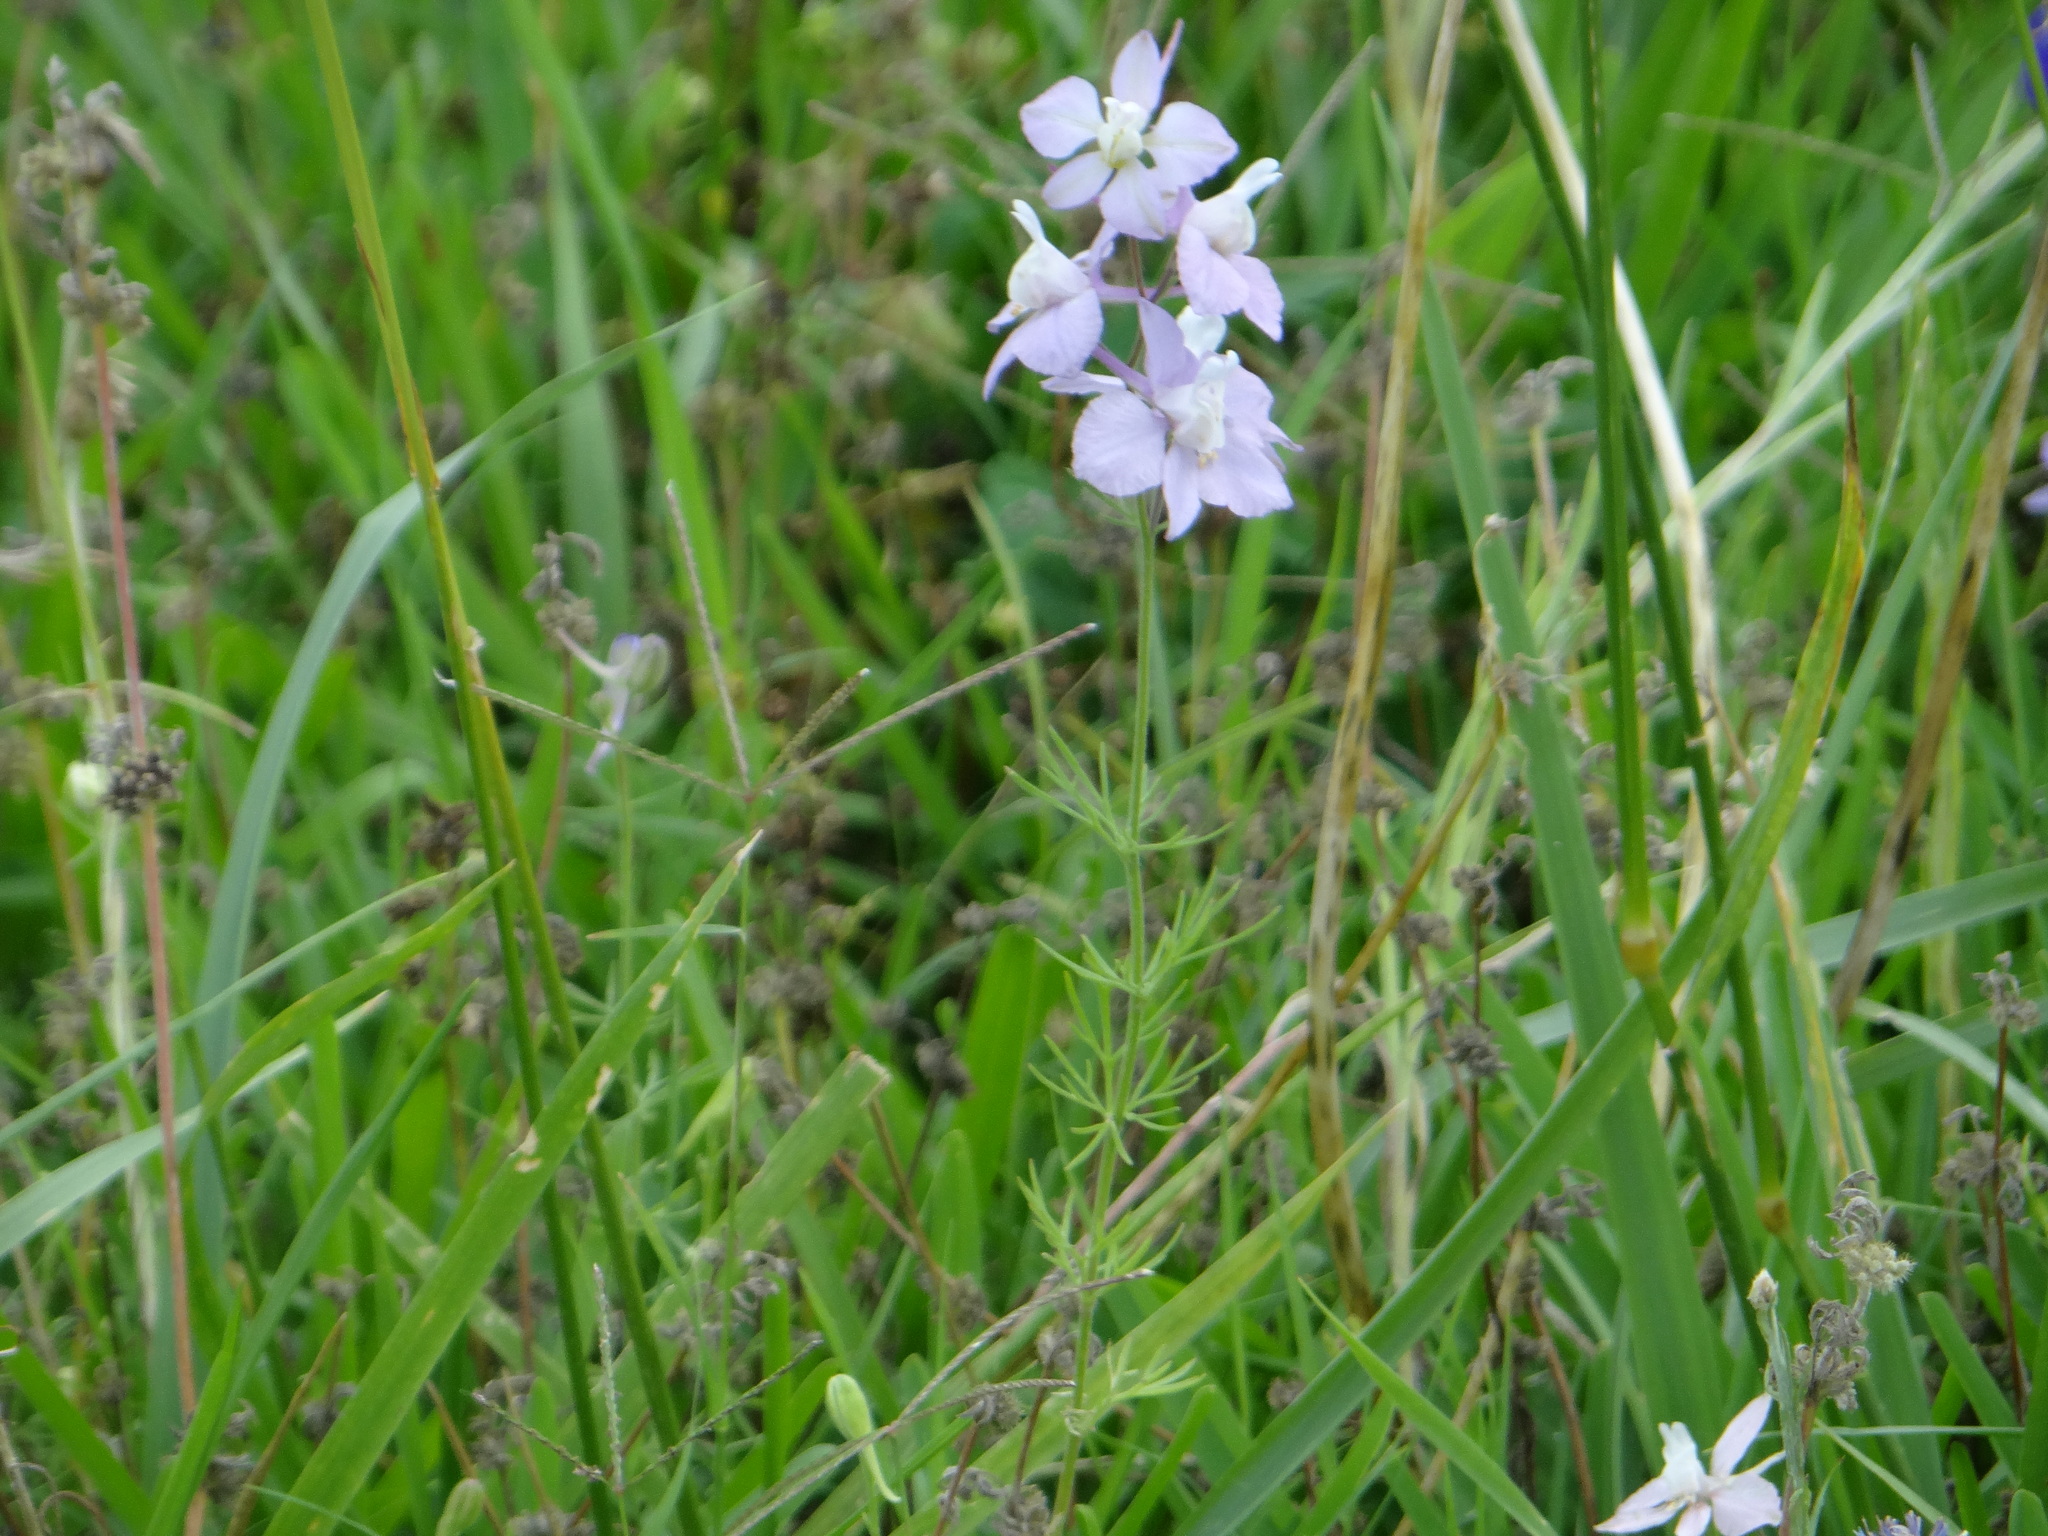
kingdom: Plantae
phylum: Tracheophyta
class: Magnoliopsida
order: Ranunculales
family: Ranunculaceae
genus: Delphinium
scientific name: Delphinium ajacis
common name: Doubtful knight's-spur
